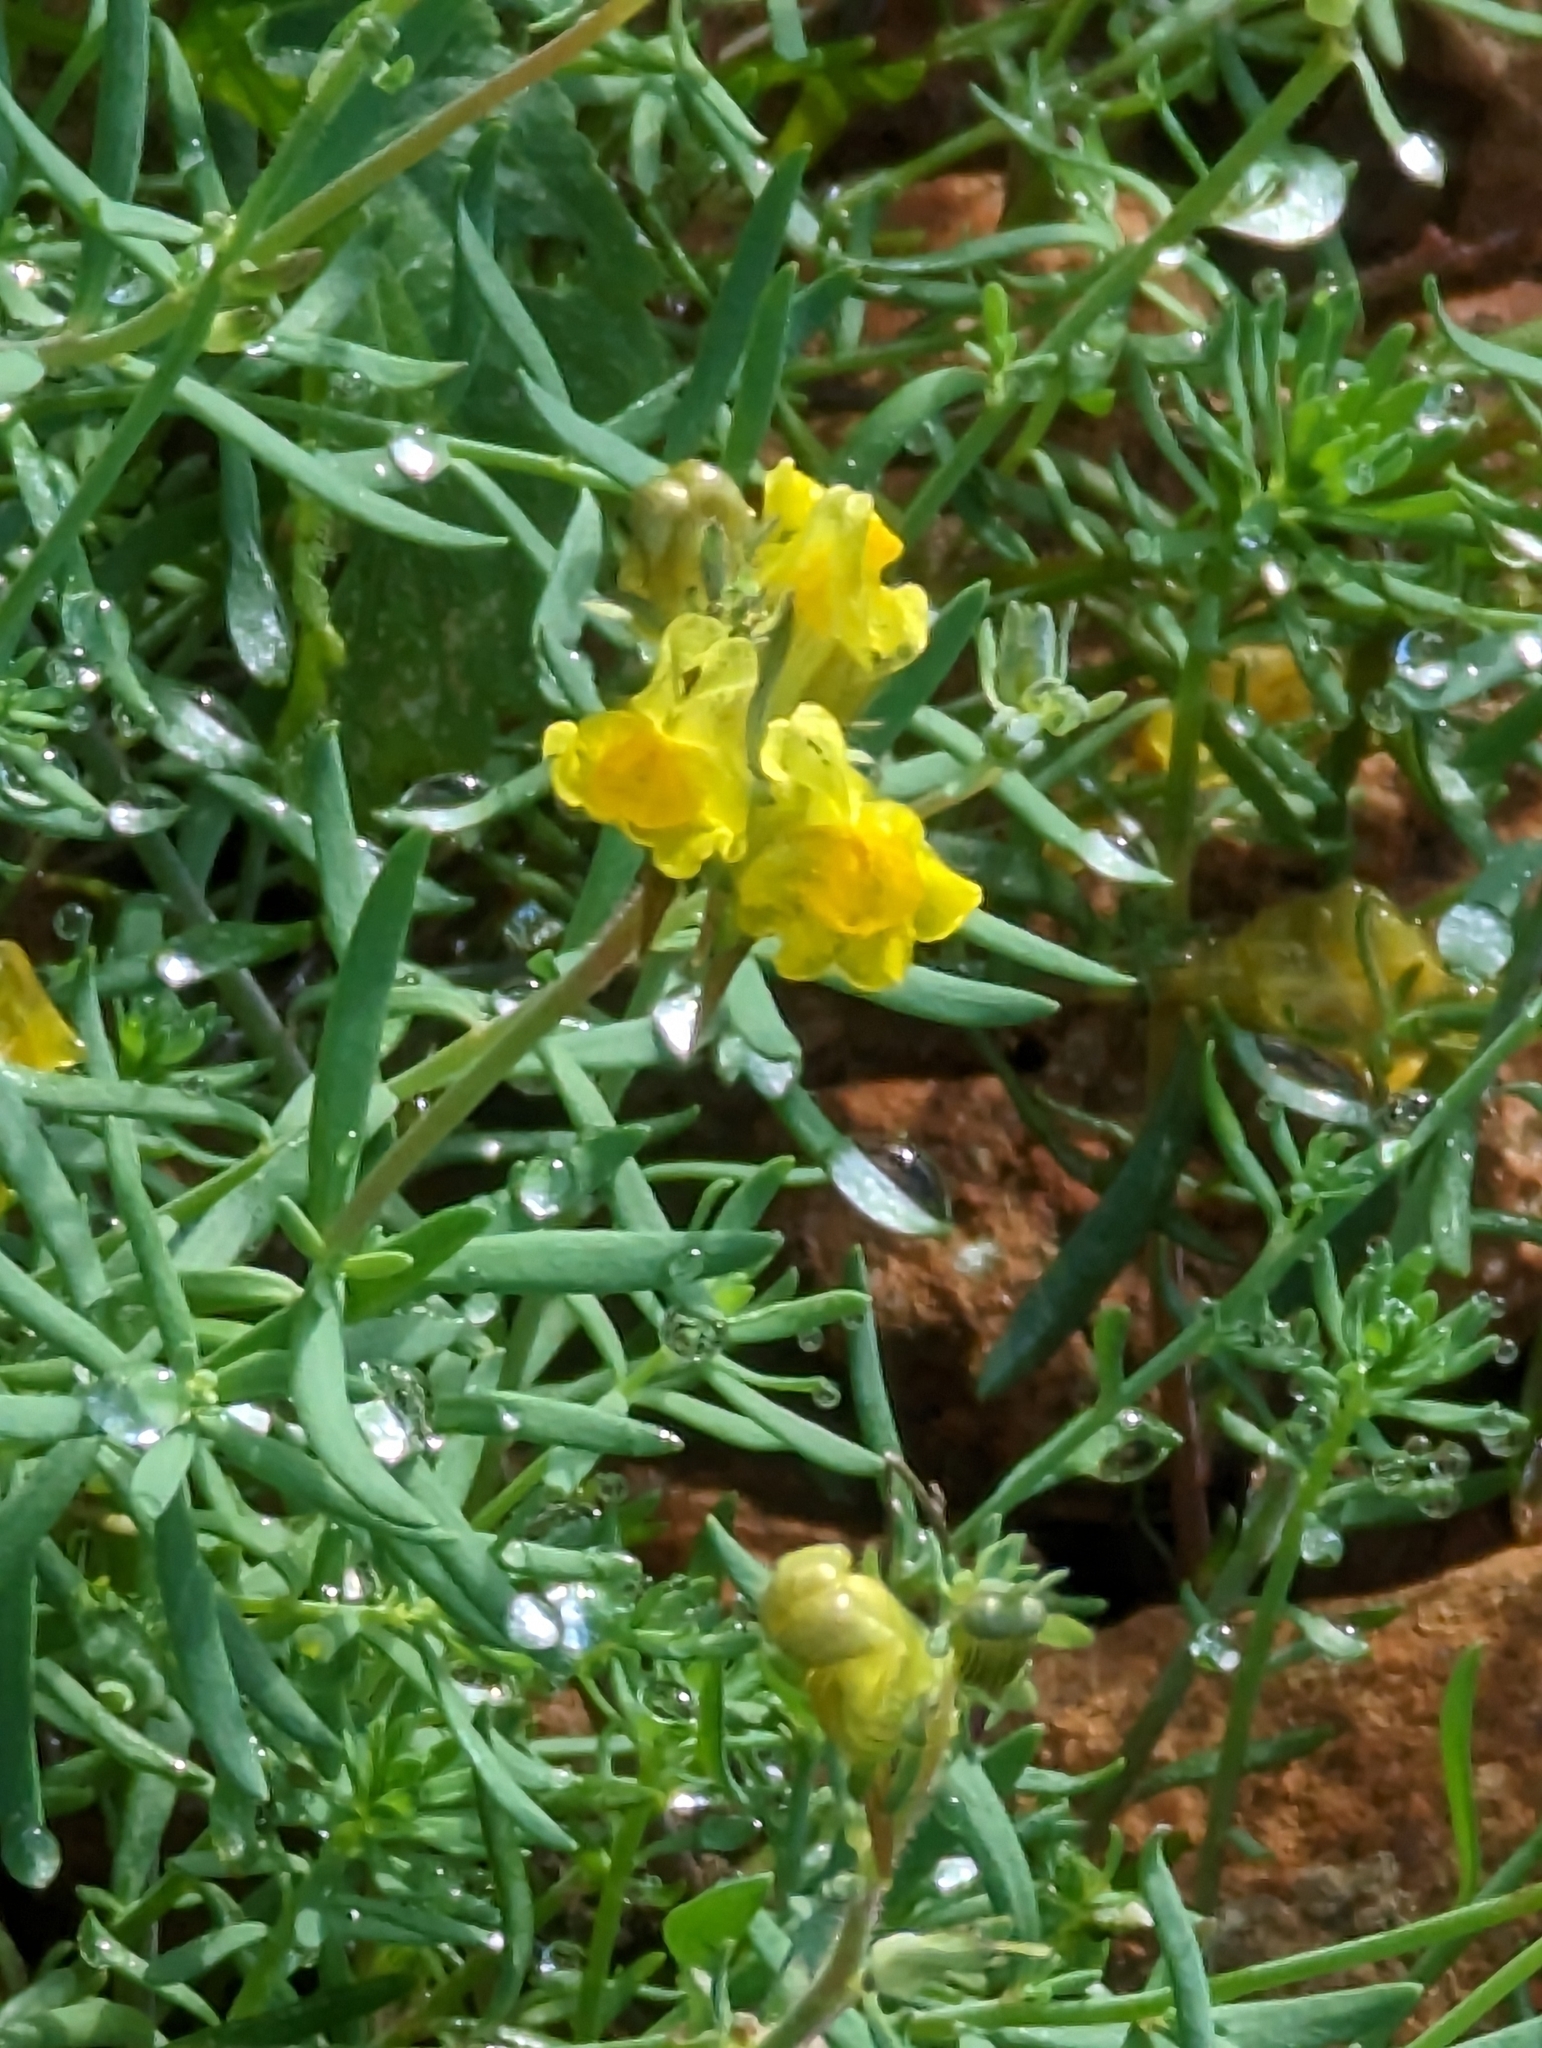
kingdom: Plantae
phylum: Tracheophyta
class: Magnoliopsida
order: Lamiales
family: Plantaginaceae
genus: Linaria
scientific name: Linaria supina
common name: Prostrate toadflax
